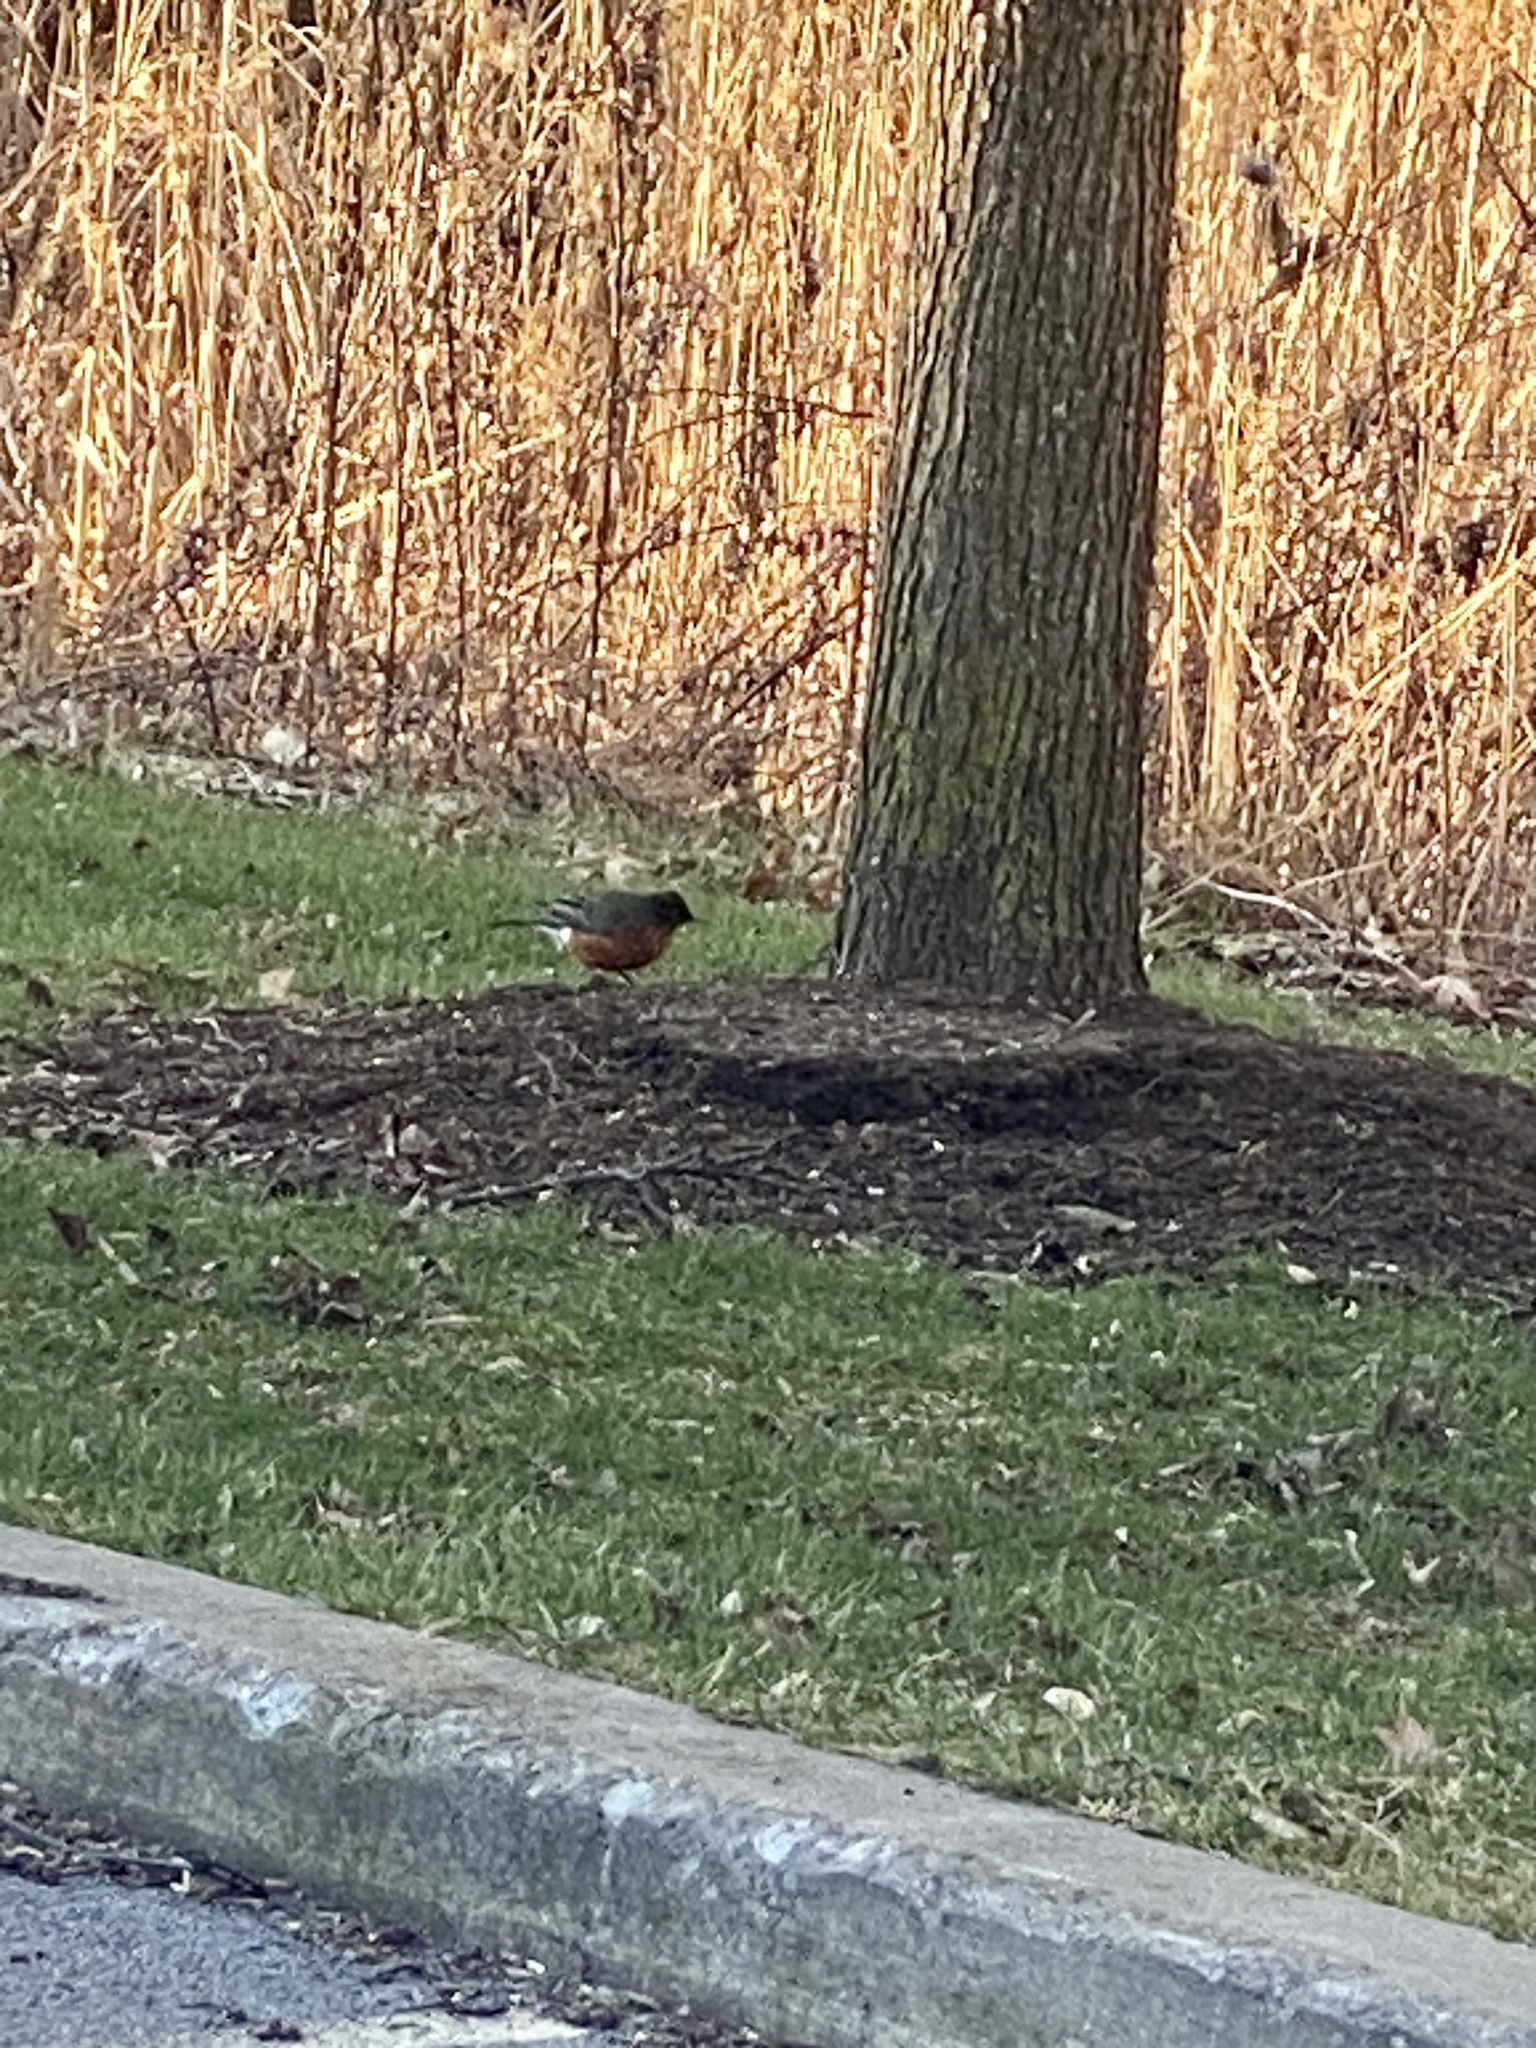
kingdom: Animalia
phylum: Chordata
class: Aves
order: Passeriformes
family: Turdidae
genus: Turdus
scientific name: Turdus migratorius
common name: American robin
